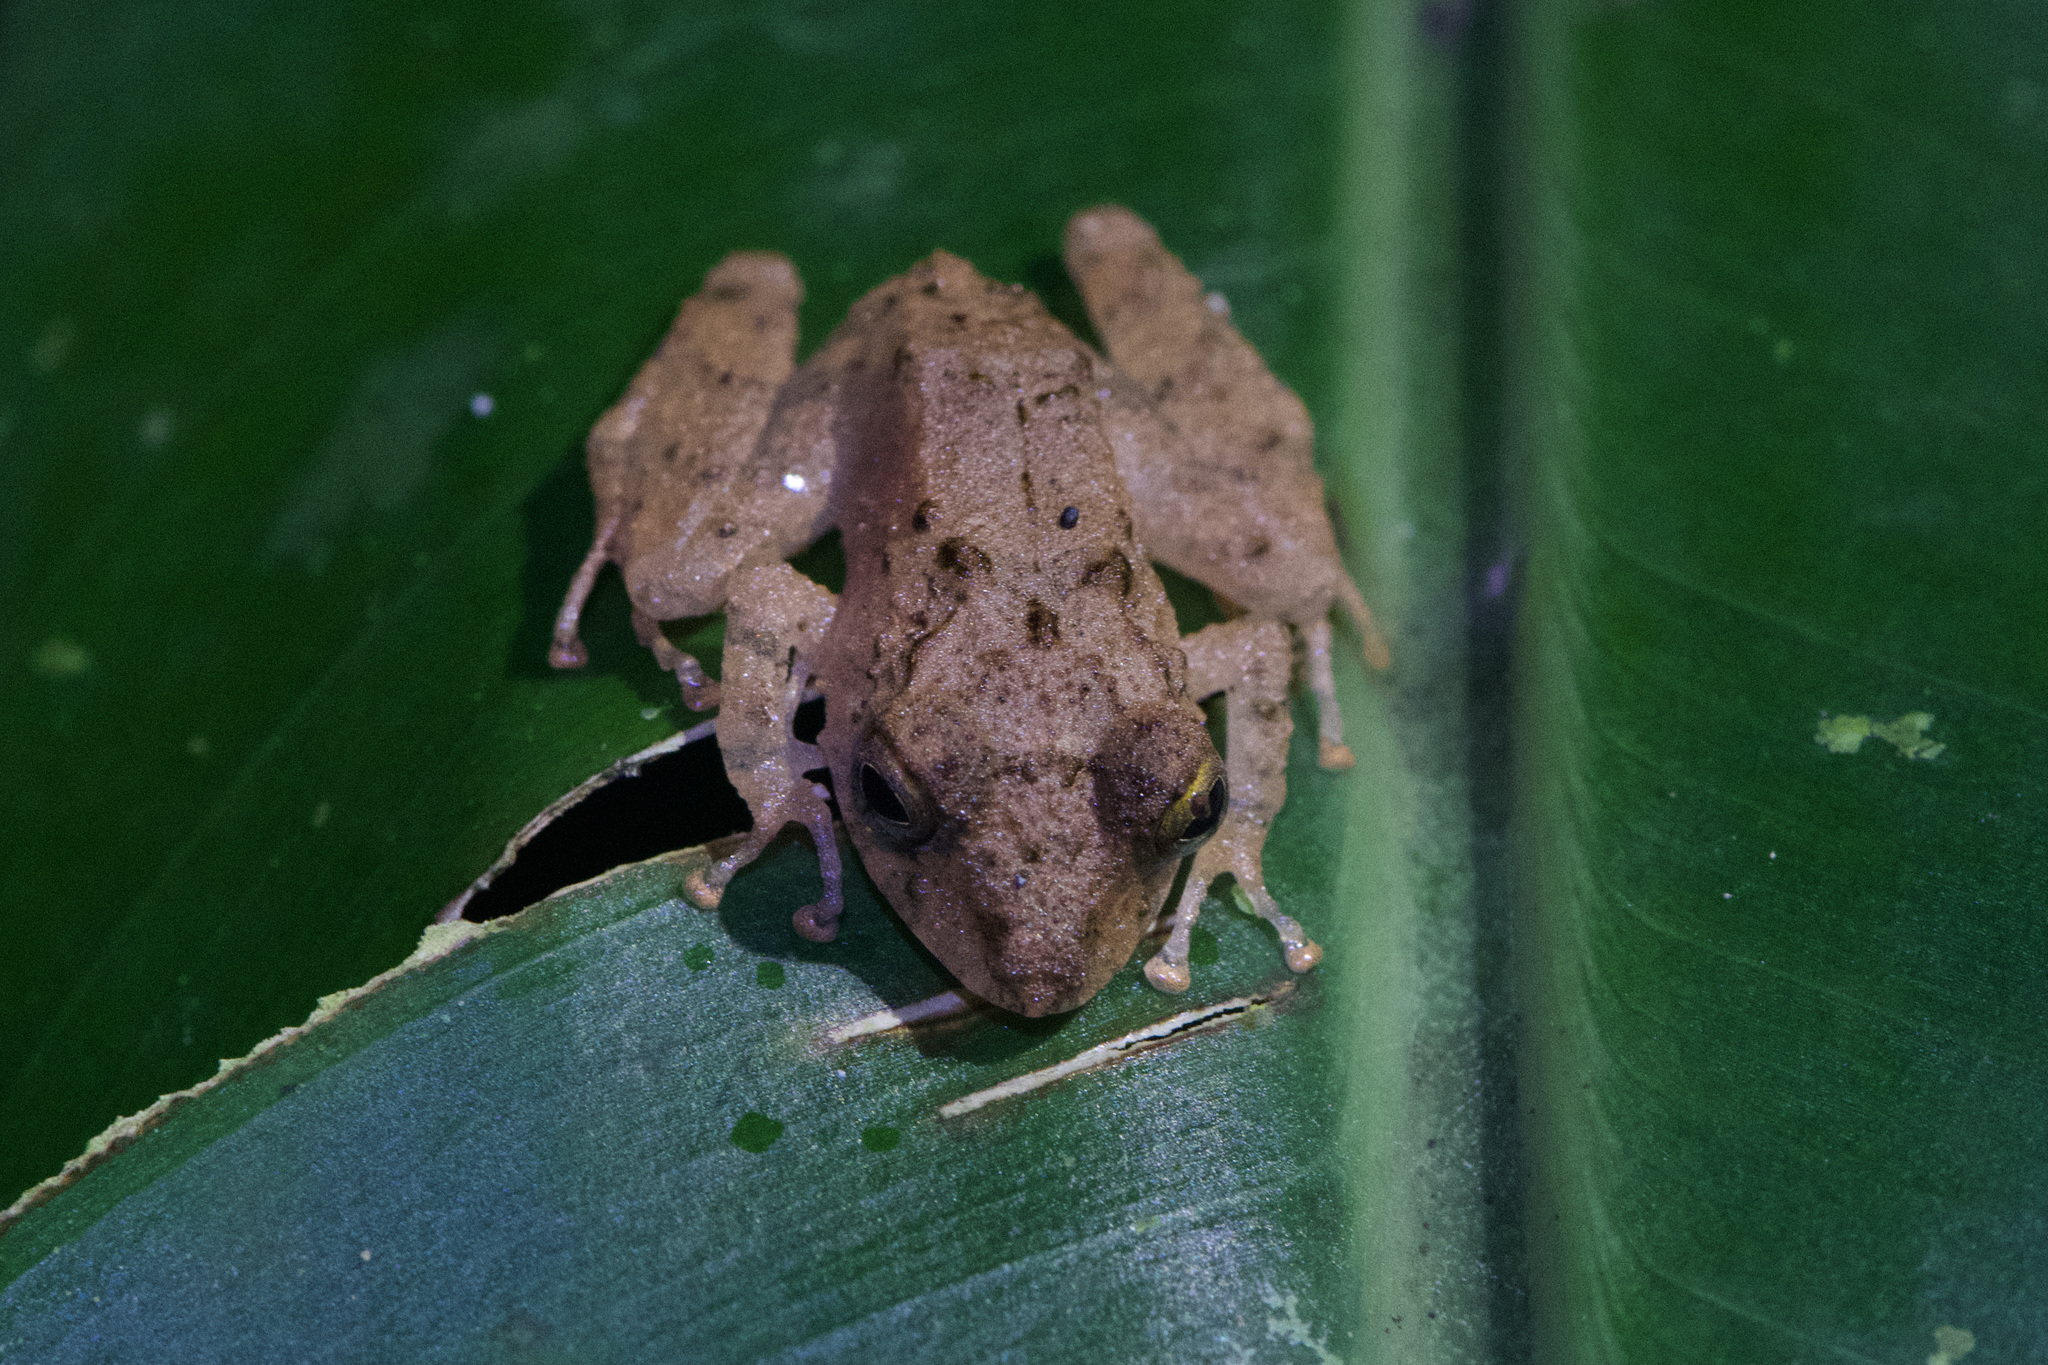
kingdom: Animalia
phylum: Chordata
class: Amphibia
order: Anura
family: Craugastoridae
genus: Pristimantis
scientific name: Pristimantis cerasinus
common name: Limon robber frog
